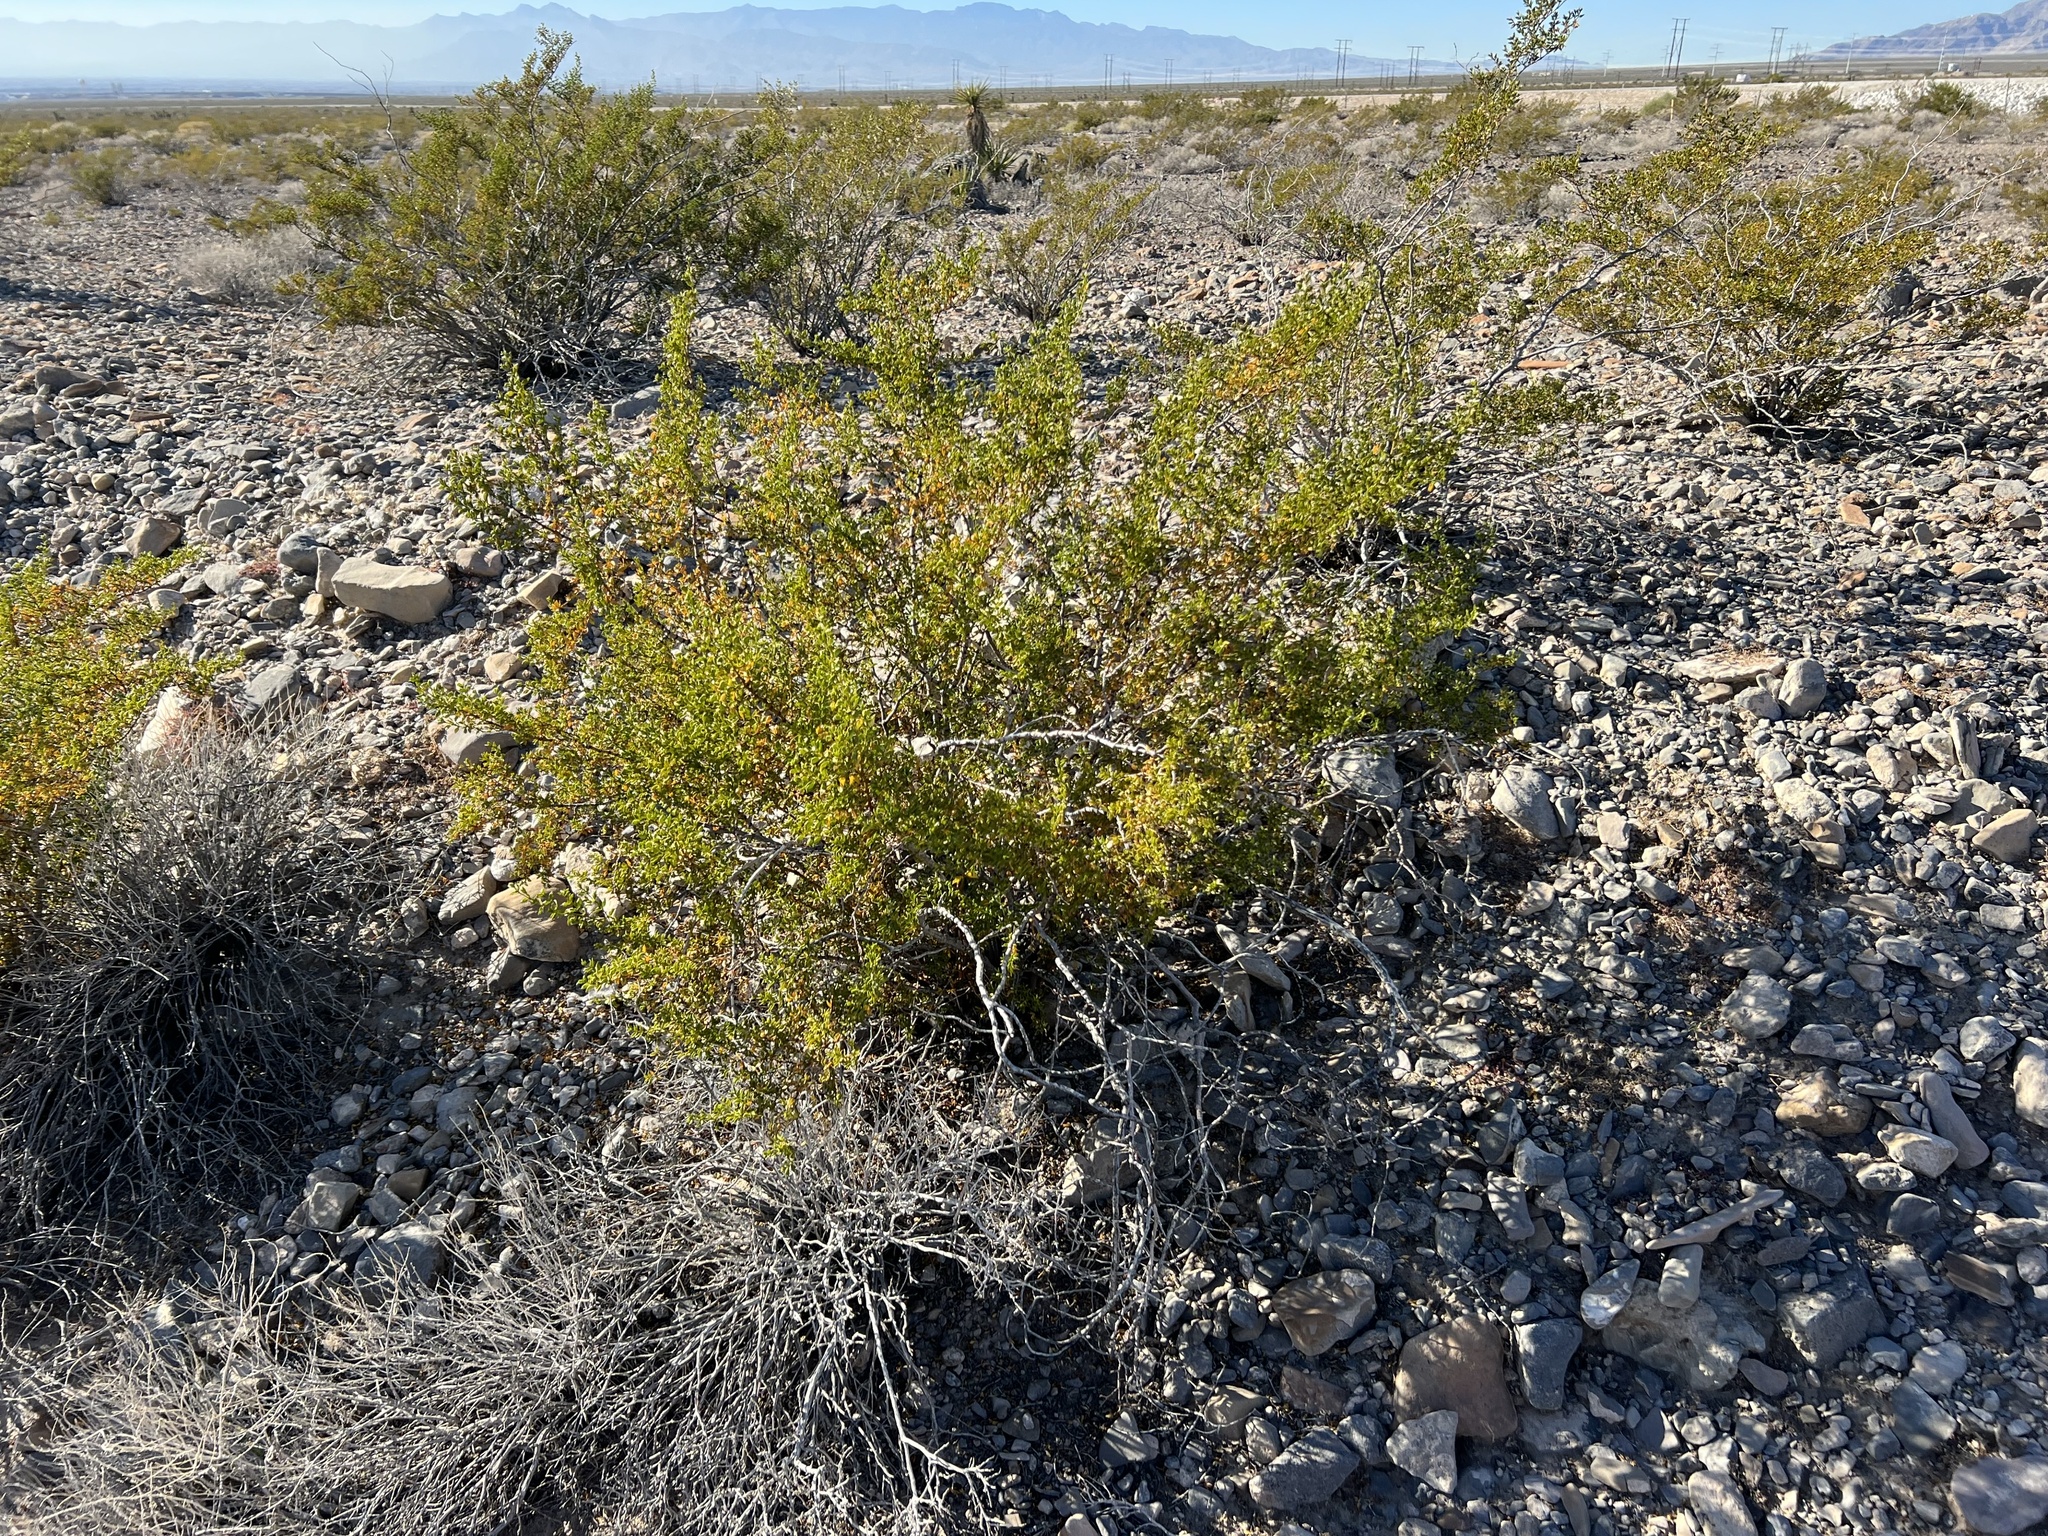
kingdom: Plantae
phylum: Tracheophyta
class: Magnoliopsida
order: Zygophyllales
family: Zygophyllaceae
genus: Larrea
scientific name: Larrea tridentata
